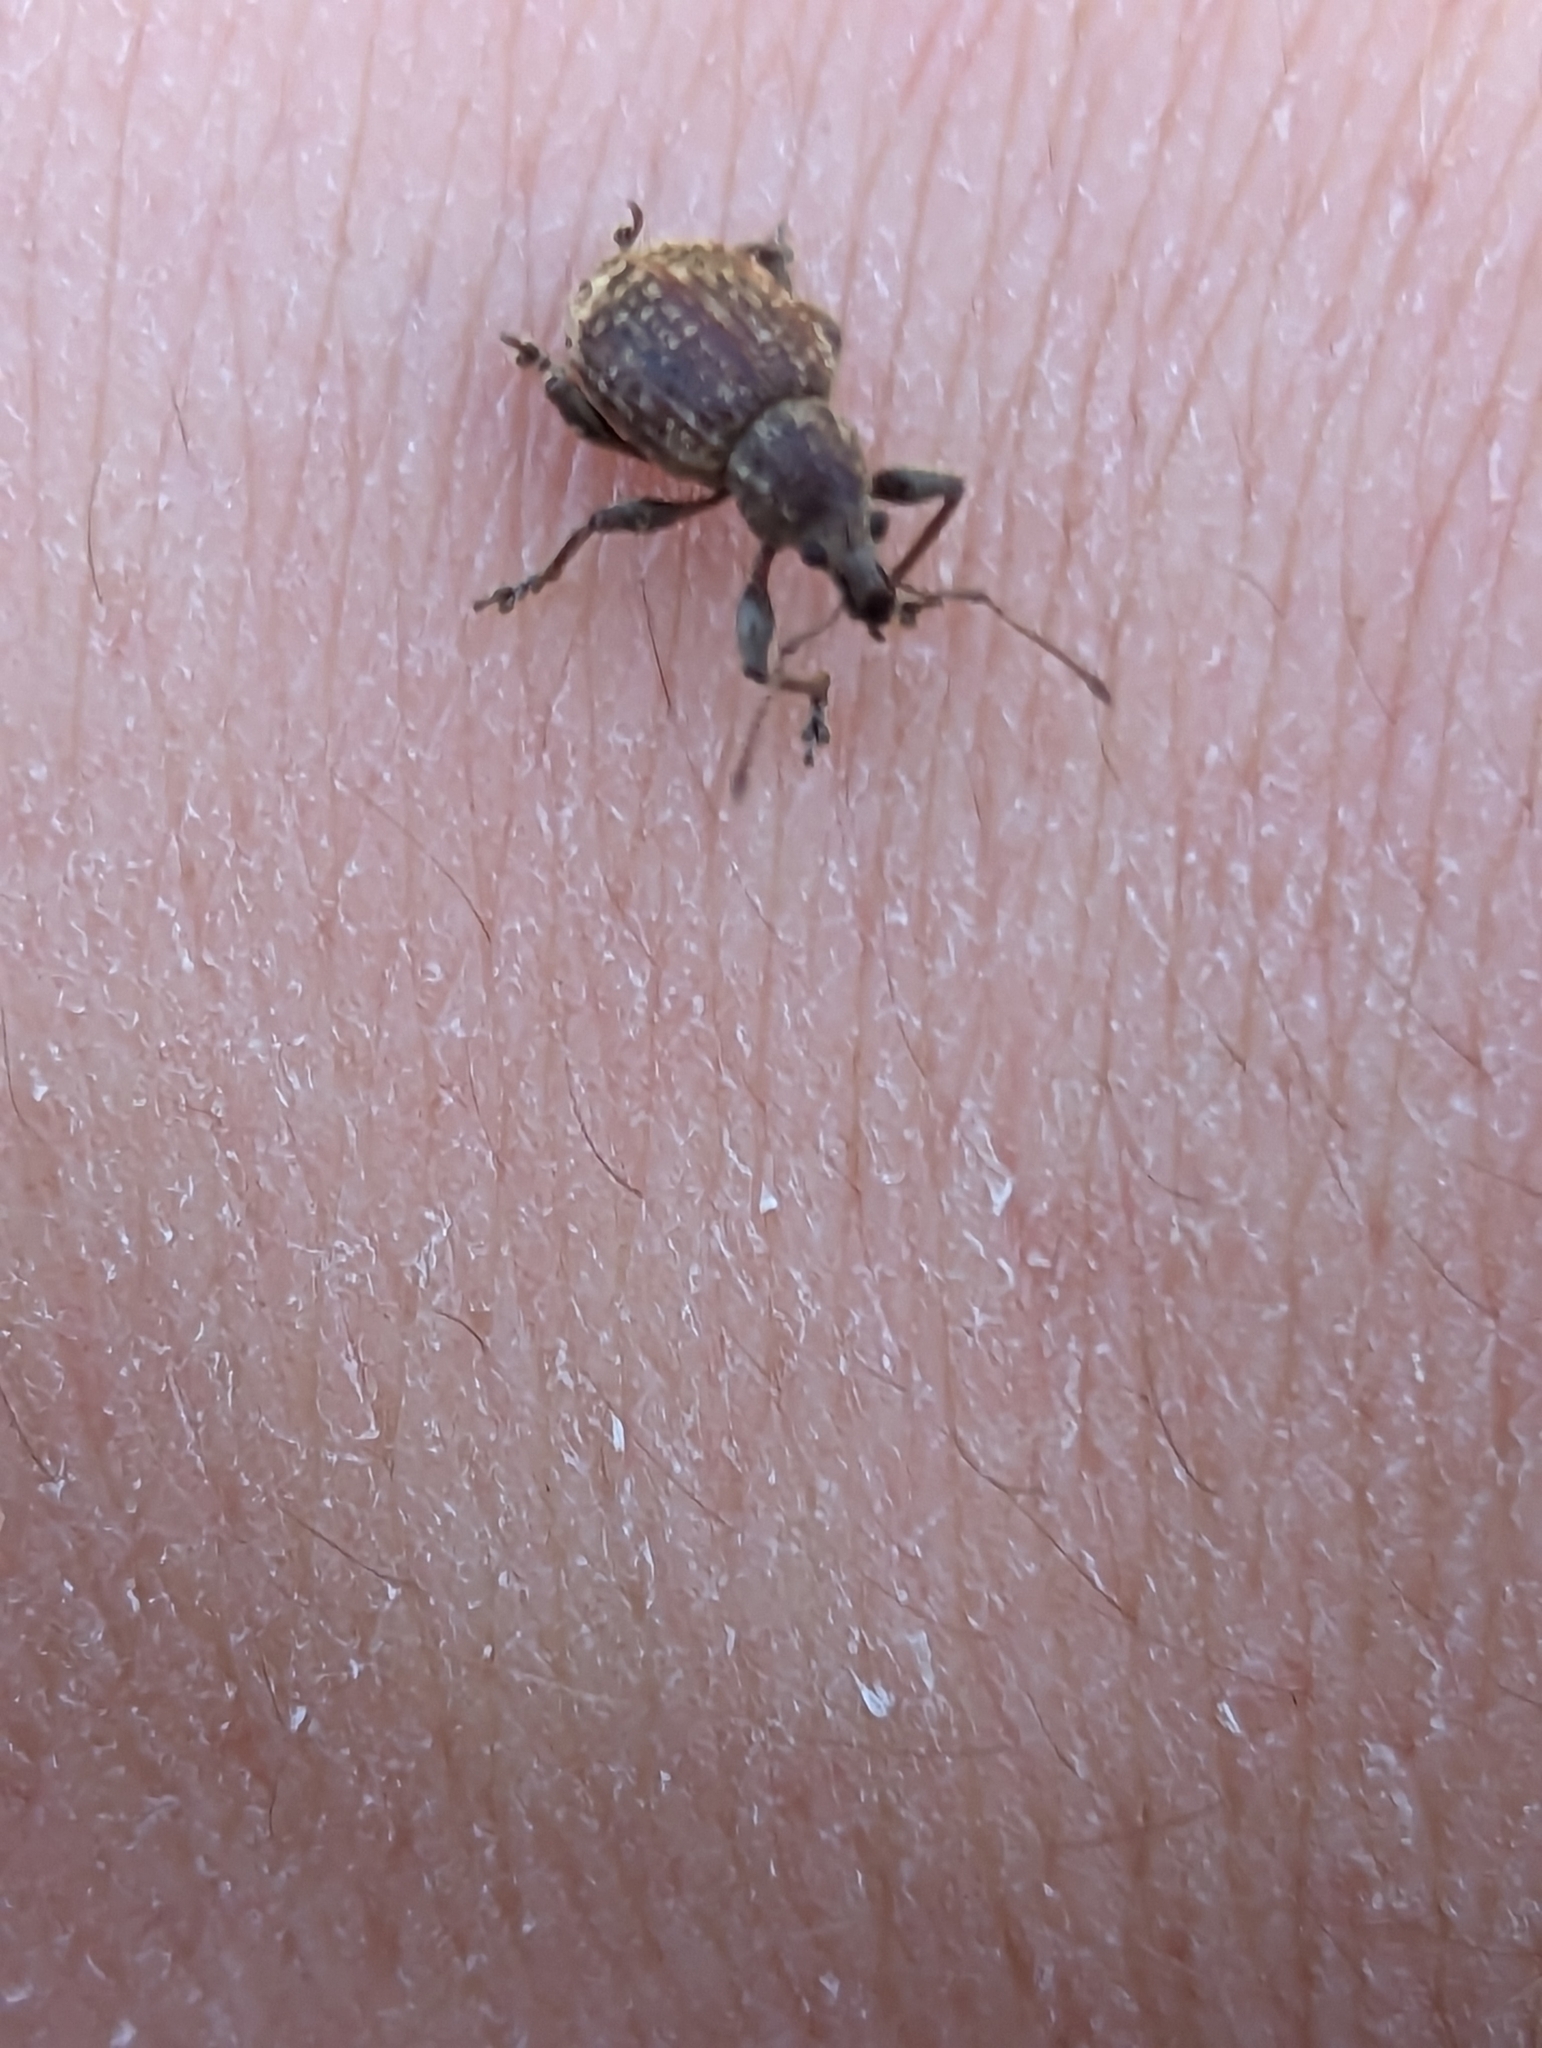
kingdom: Animalia
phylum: Arthropoda
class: Insecta
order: Coleoptera
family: Curculionidae
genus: Phlyctinus
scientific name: Phlyctinus callosus
